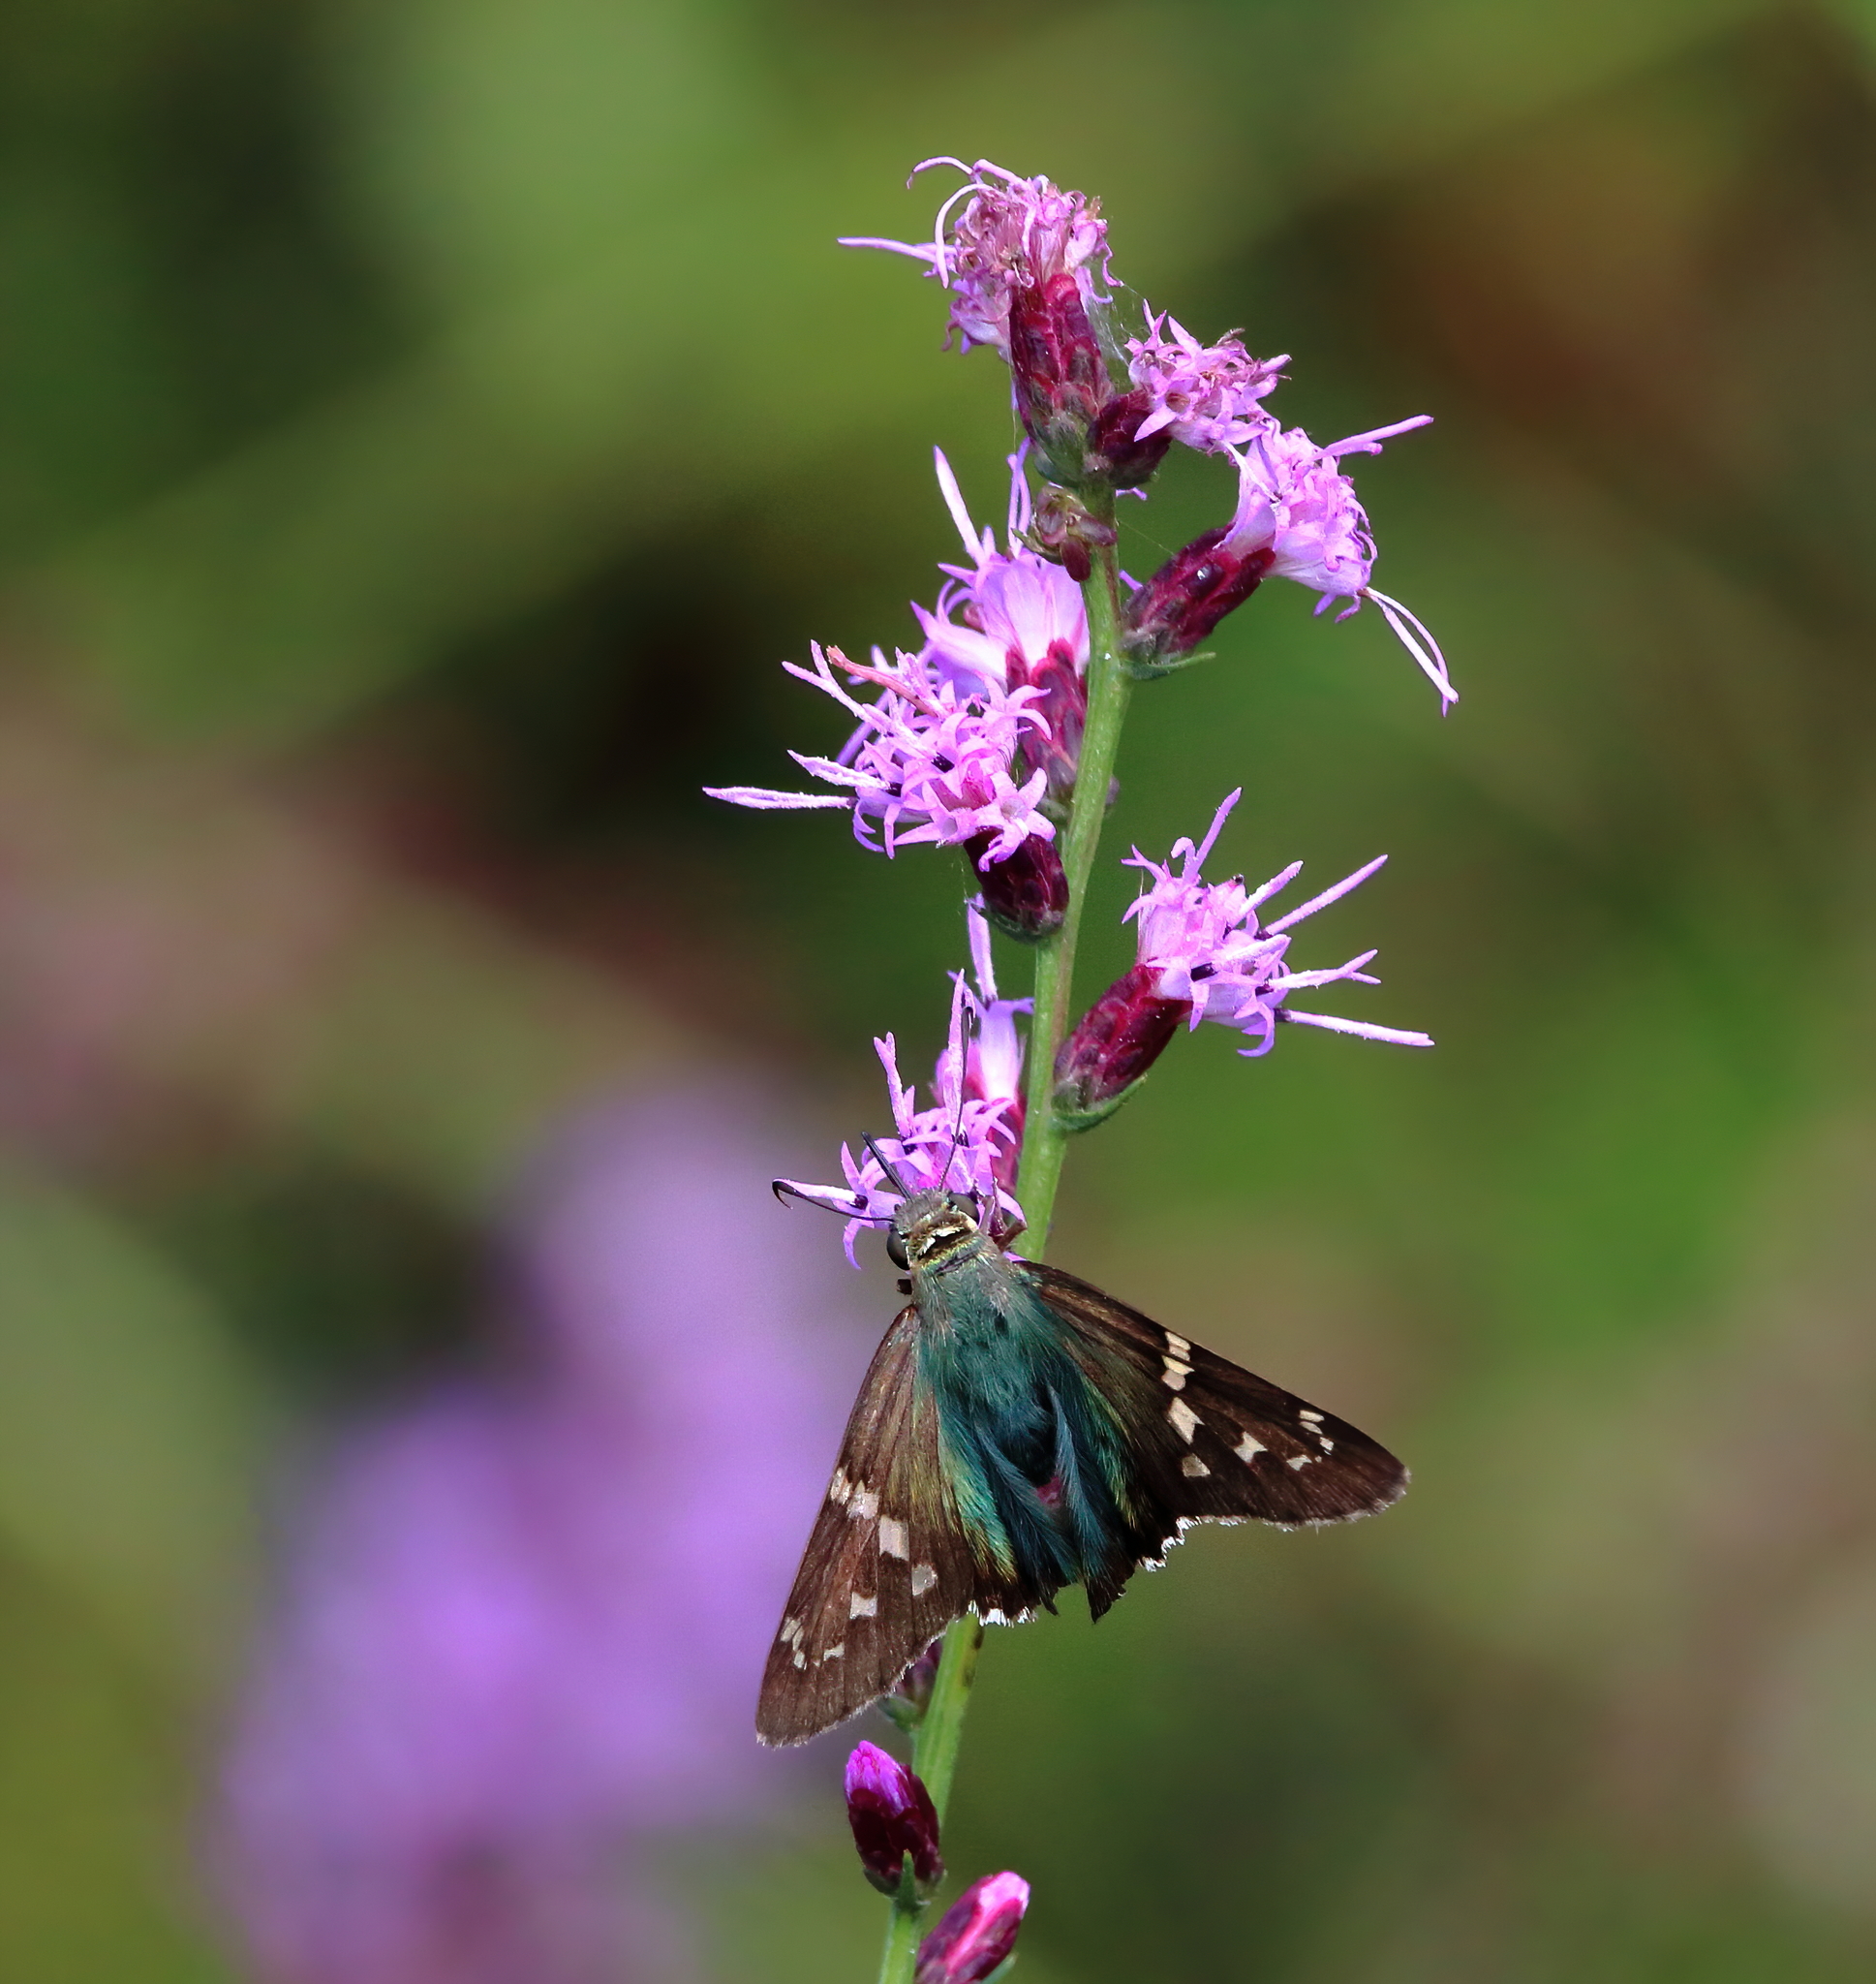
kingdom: Animalia
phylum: Arthropoda
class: Insecta
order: Lepidoptera
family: Hesperiidae
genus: Urbanus
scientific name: Urbanus proteus
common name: Long-tailed skipper
